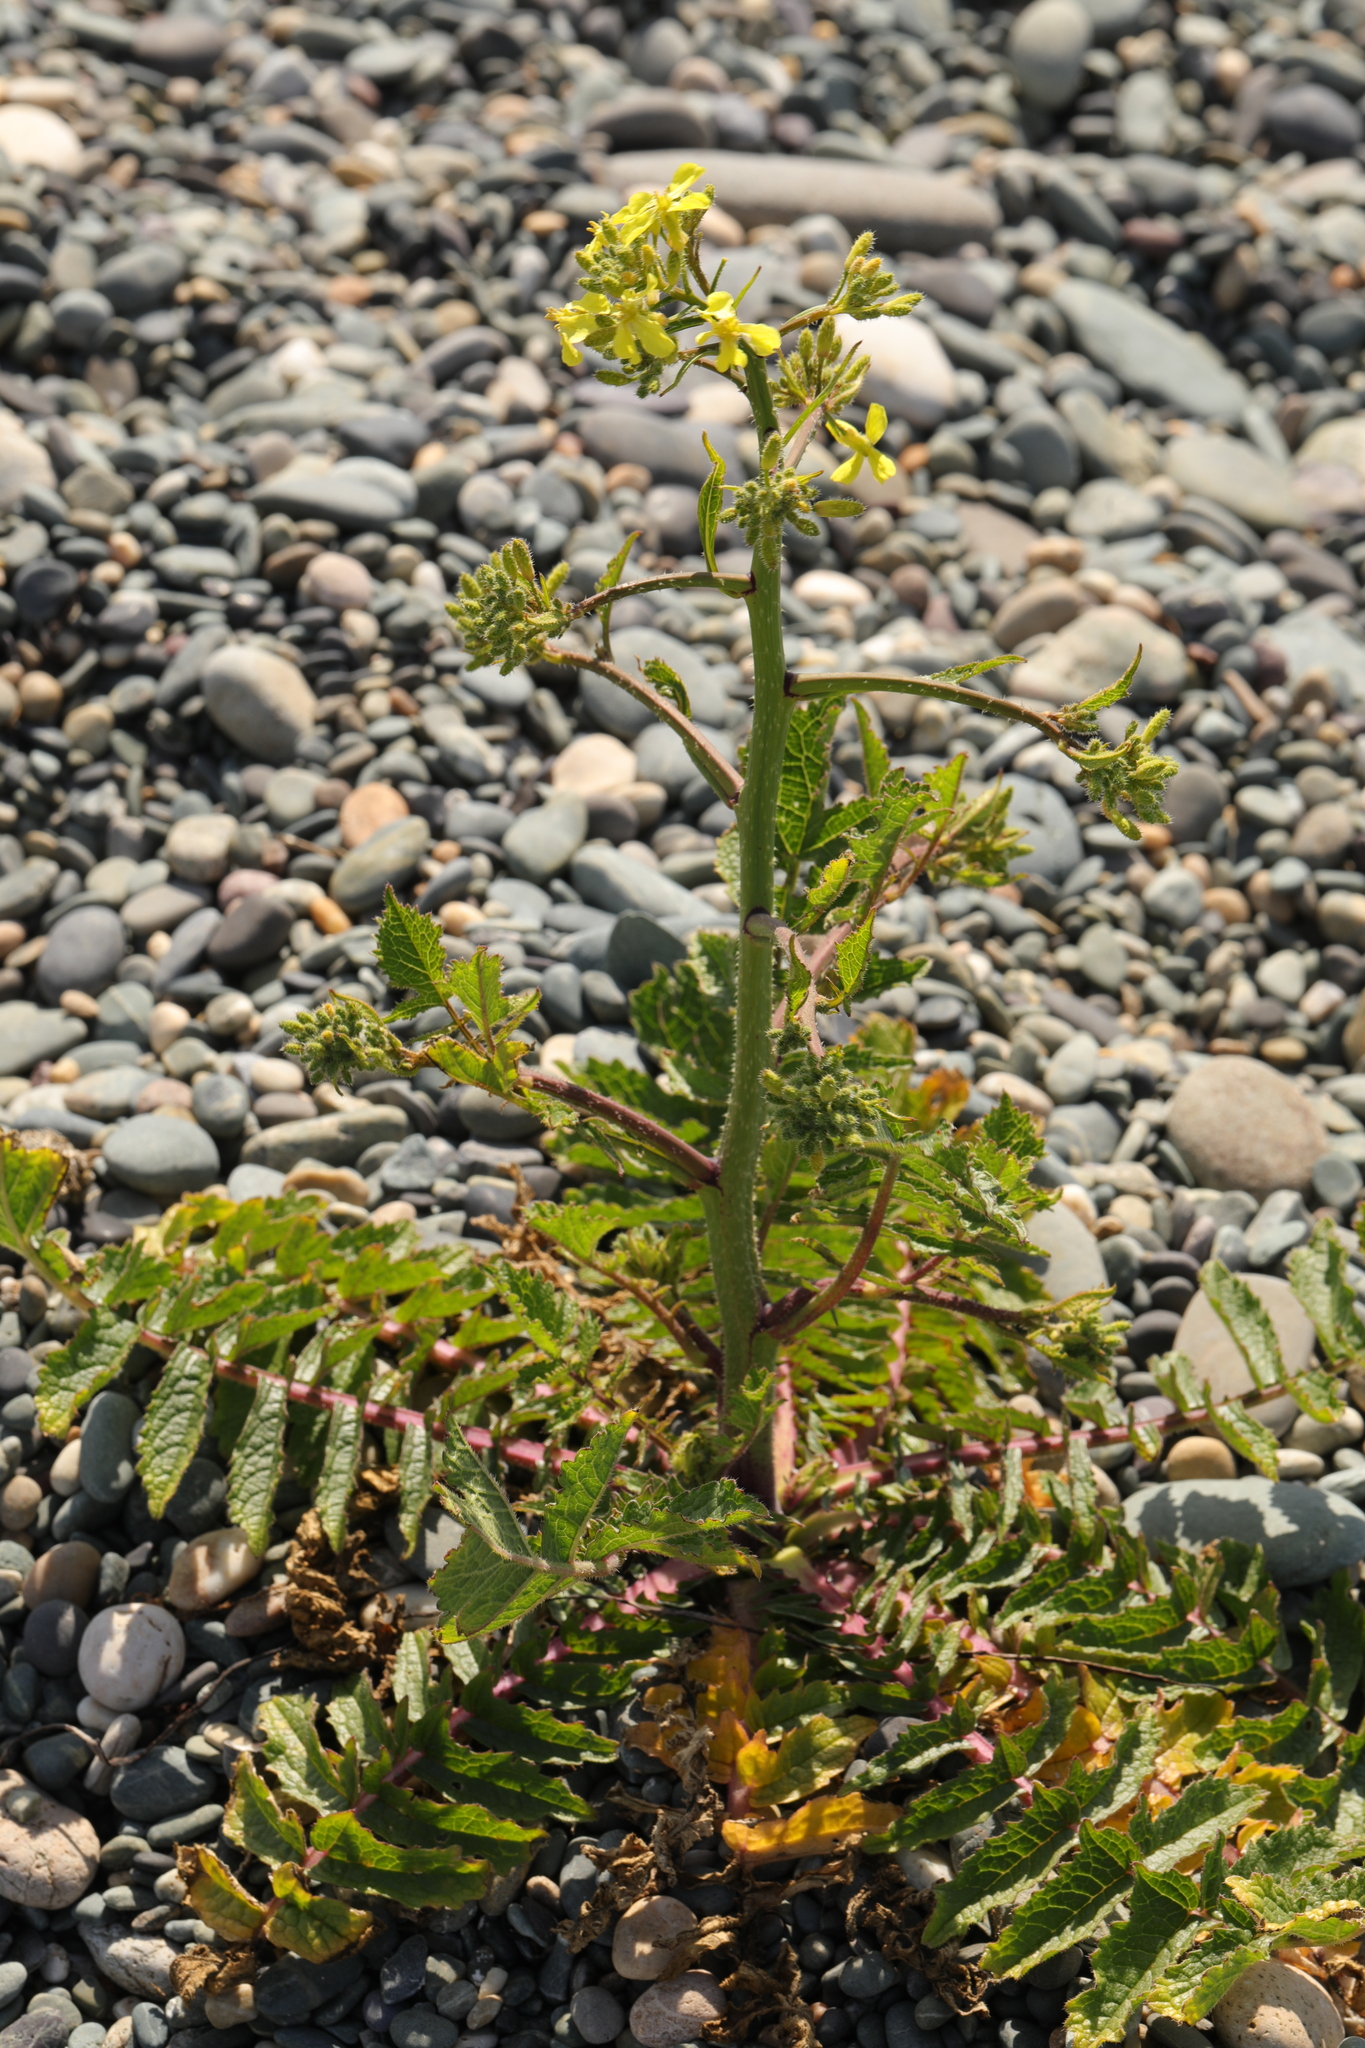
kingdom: Plantae
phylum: Tracheophyta
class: Magnoliopsida
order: Brassicales
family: Brassicaceae
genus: Raphanus
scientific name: Raphanus raphanistrum
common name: Wild radish
